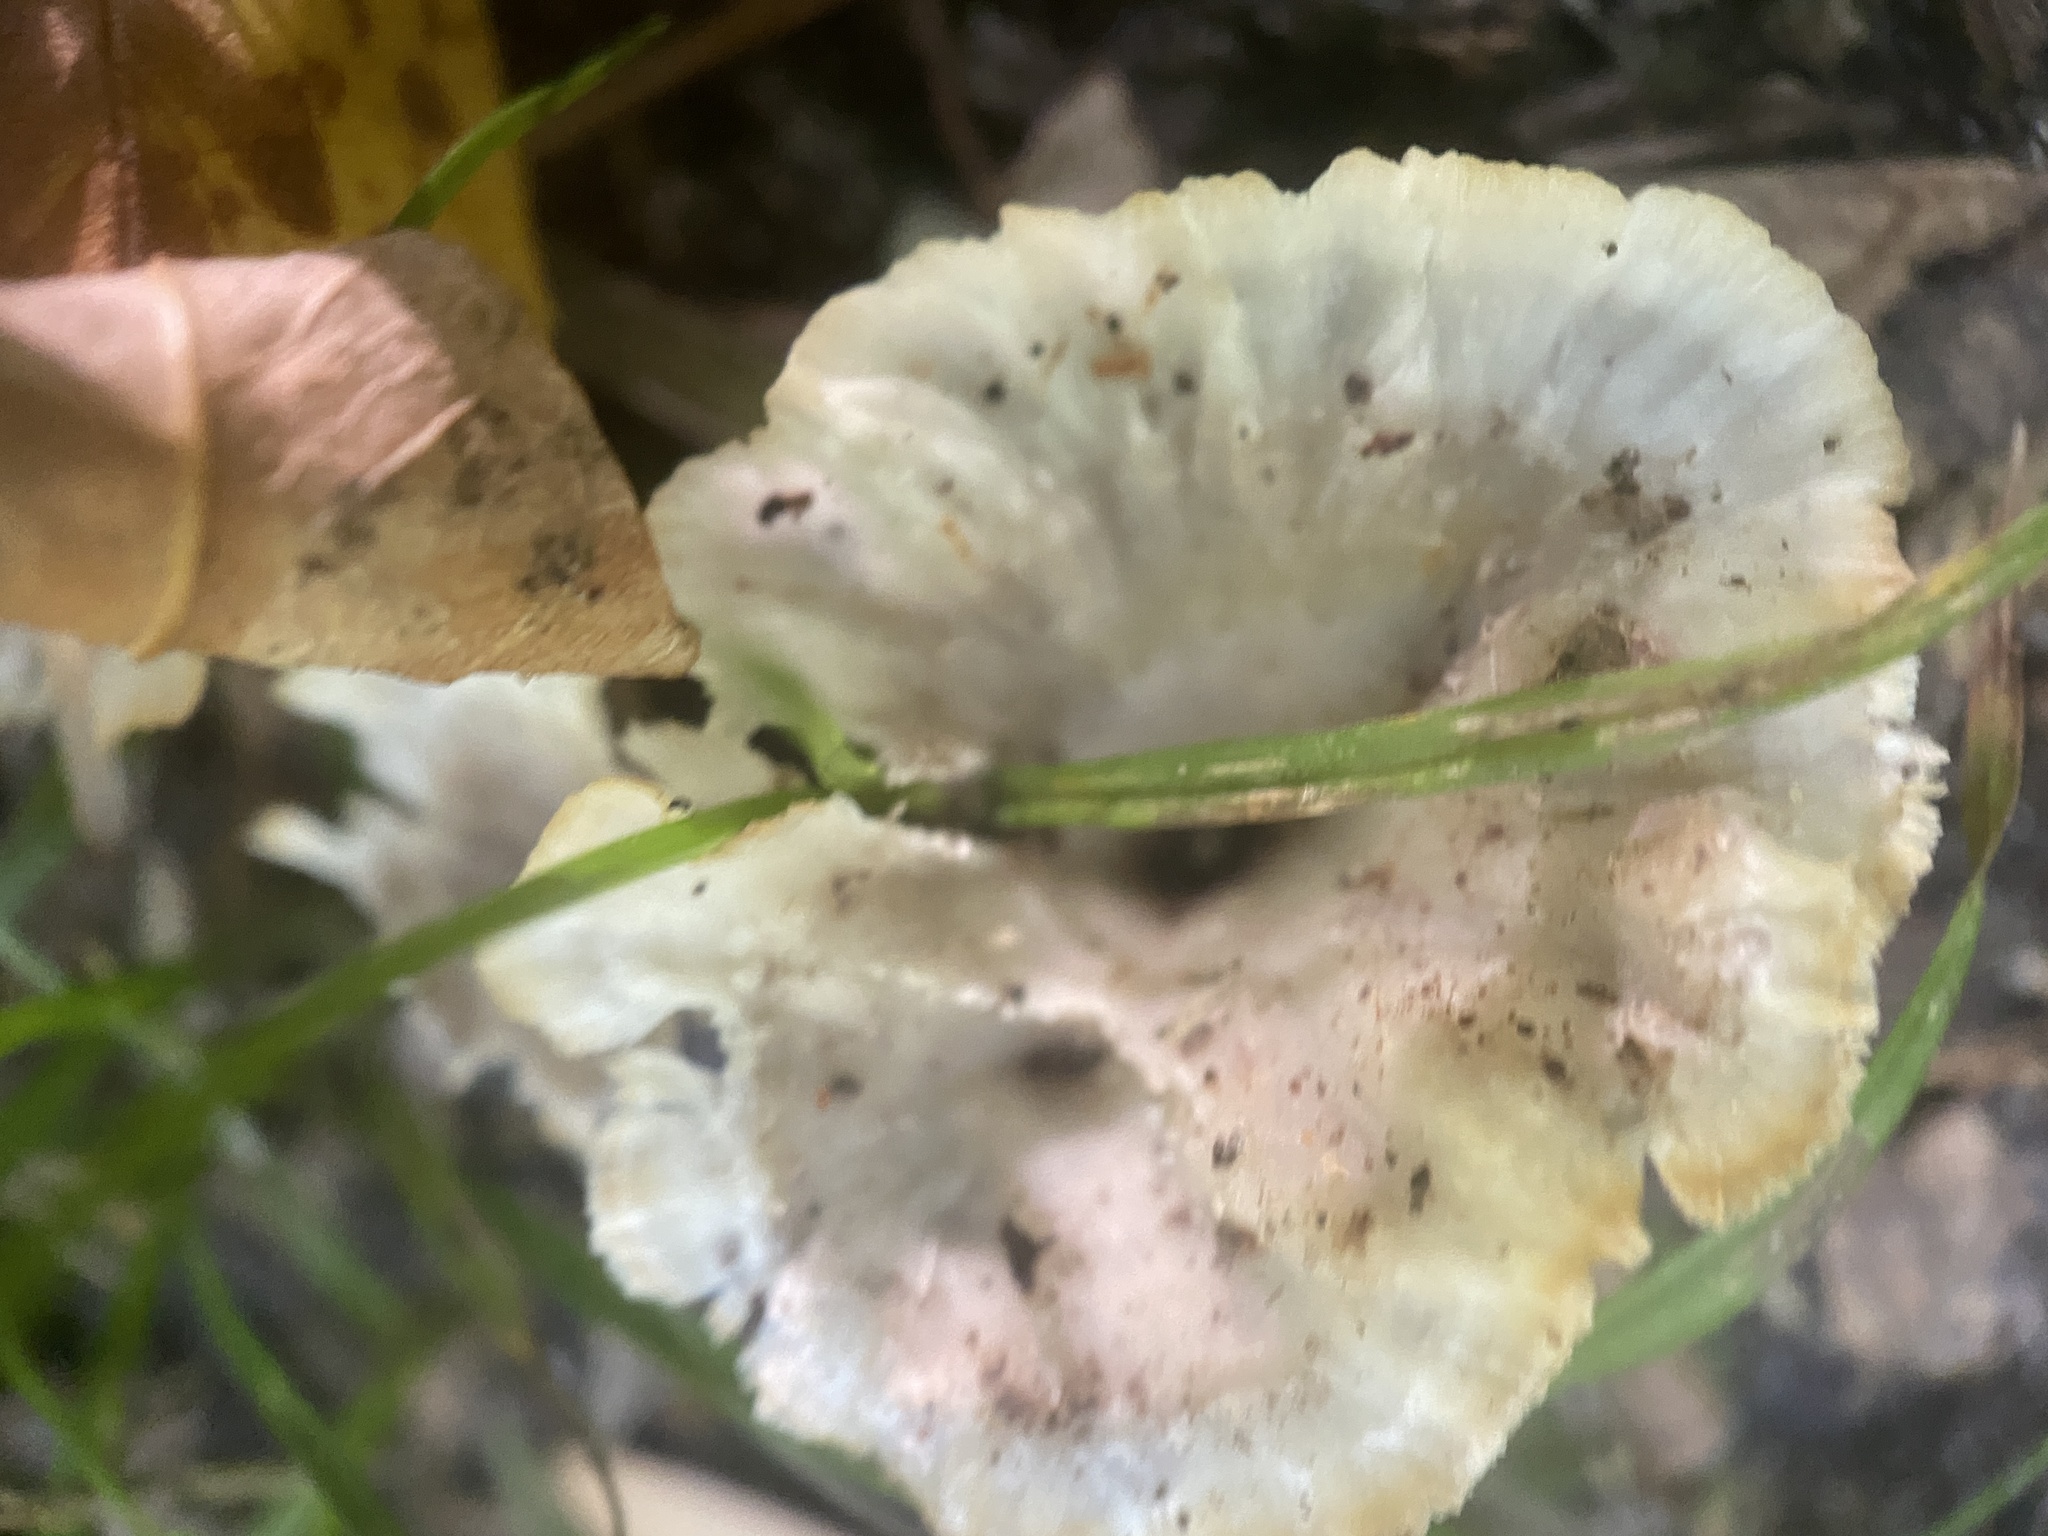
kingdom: Fungi
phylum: Basidiomycota
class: Agaricomycetes
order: Hymenochaetales
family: Rickenellaceae
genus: Cotylidia
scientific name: Cotylidia diaphana
